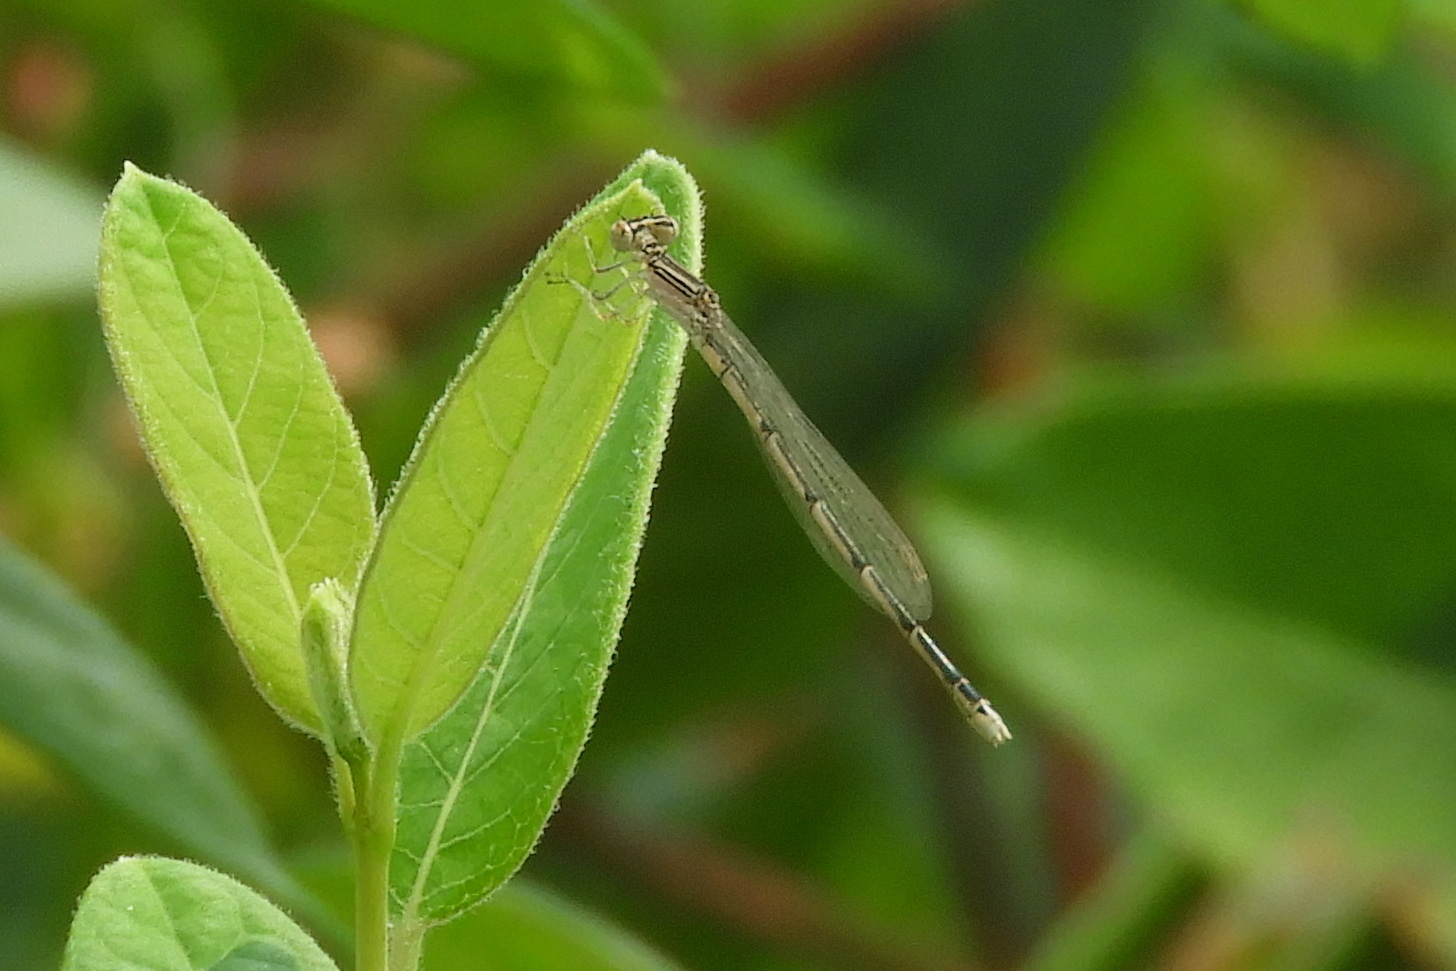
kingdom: Animalia
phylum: Arthropoda
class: Insecta
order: Odonata
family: Coenagrionidae
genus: Enallagma
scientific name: Enallagma basidens
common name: Double-striped bluet
